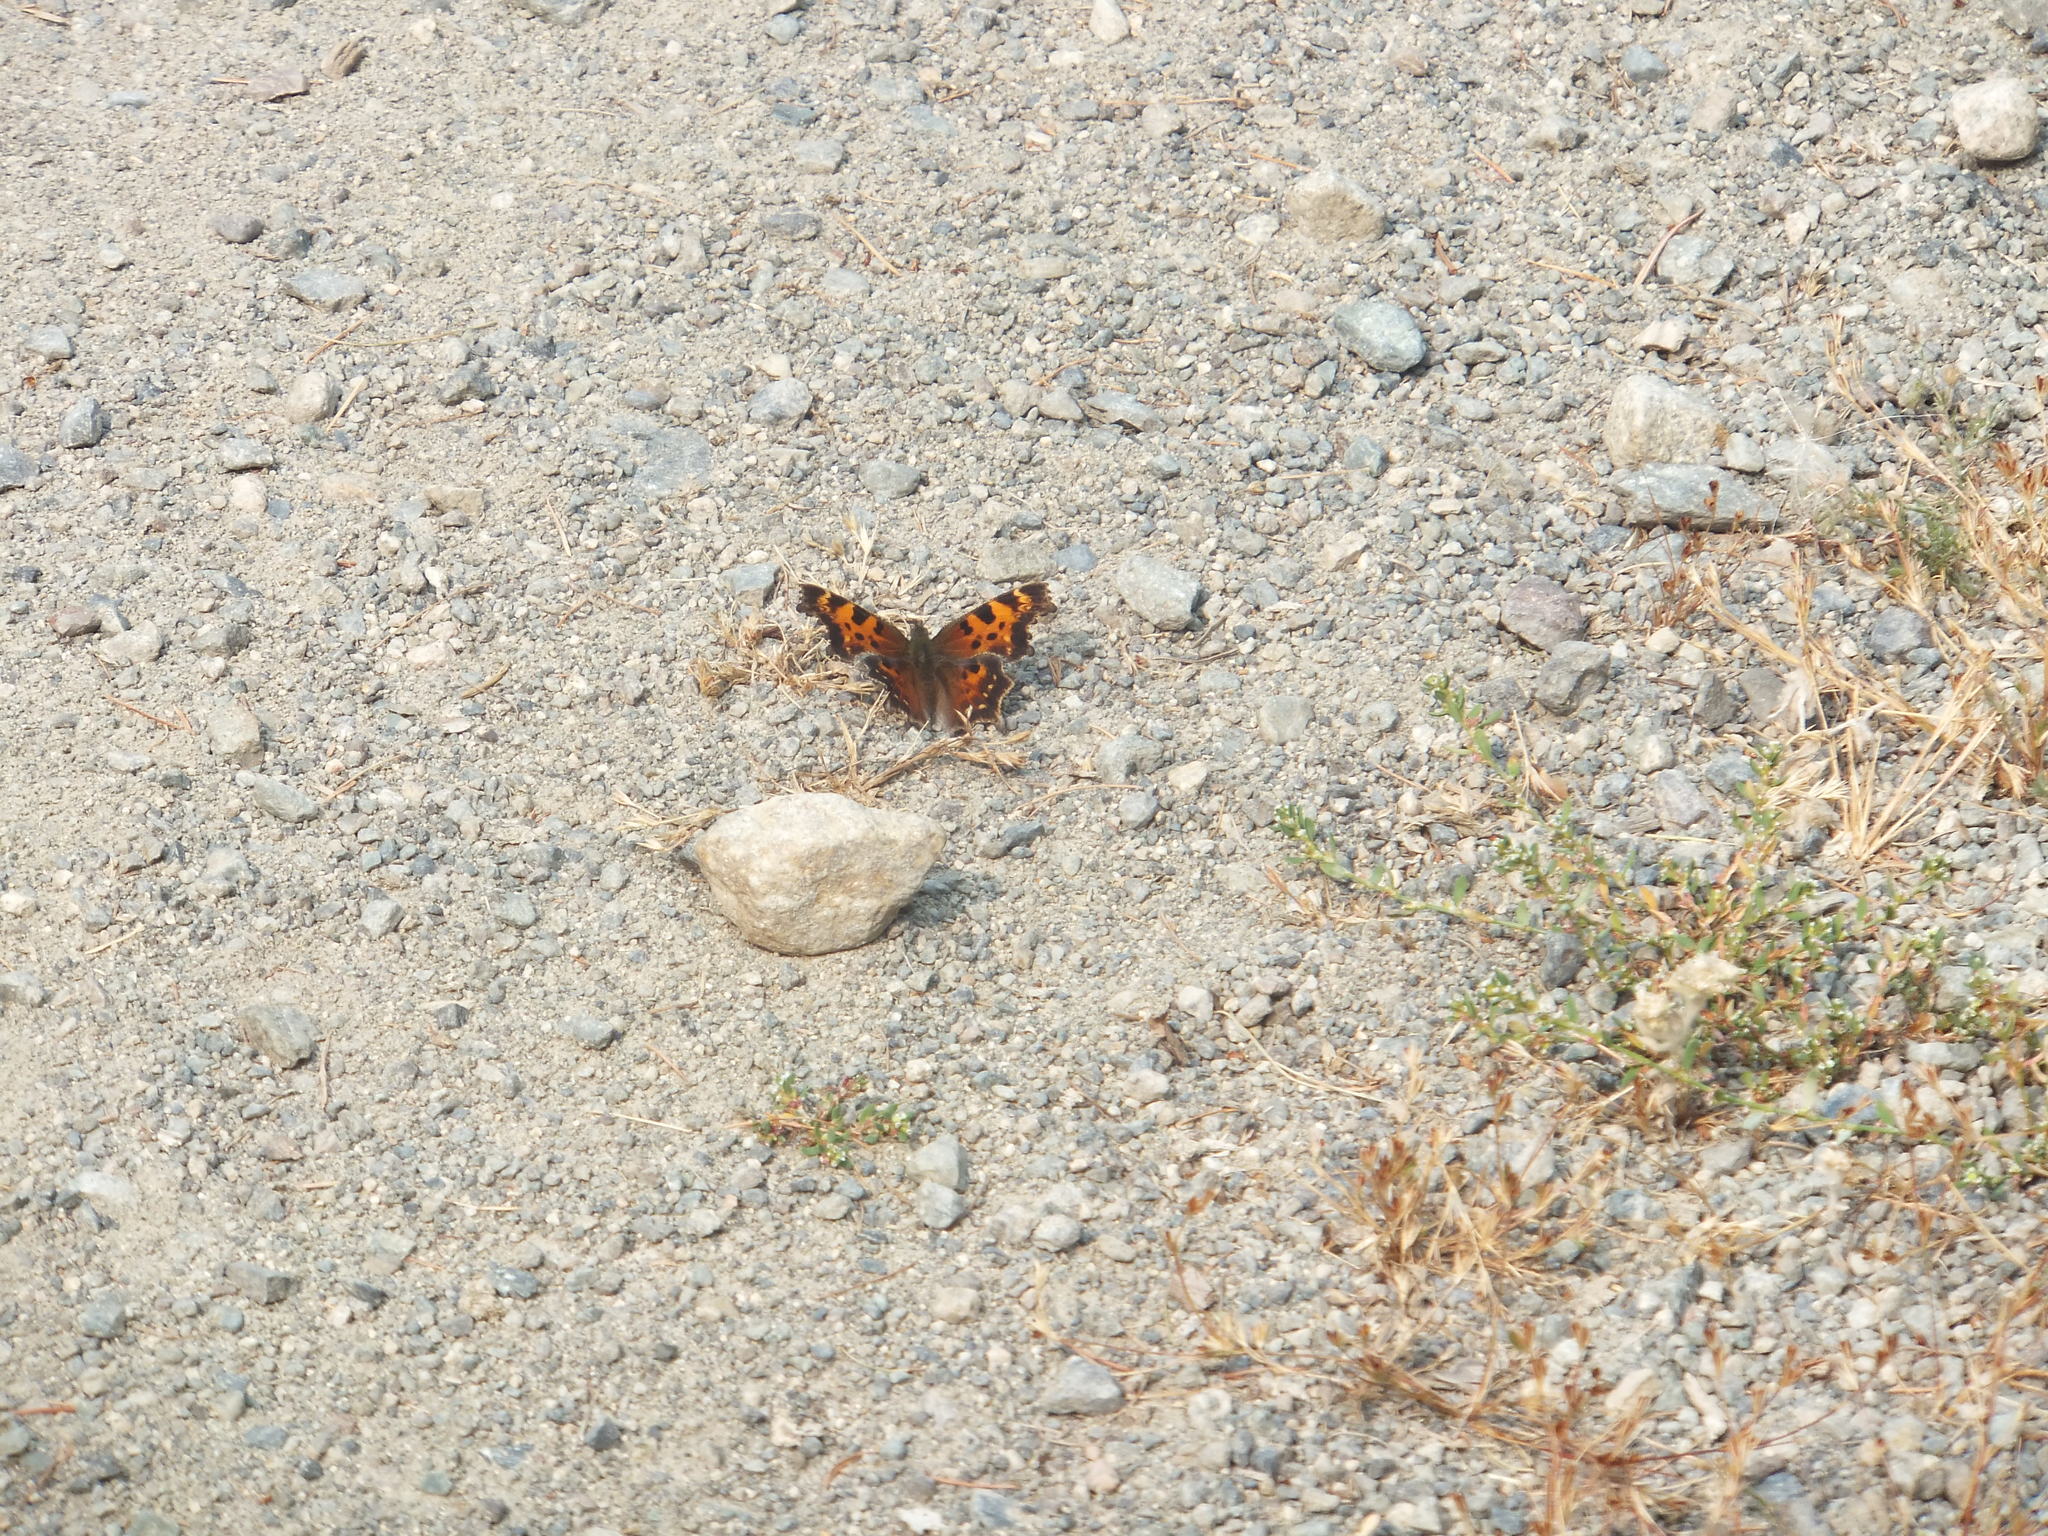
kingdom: Animalia
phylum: Arthropoda
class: Insecta
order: Lepidoptera
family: Nymphalidae
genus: Polygonia
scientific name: Polygonia faunus
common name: Green comma
